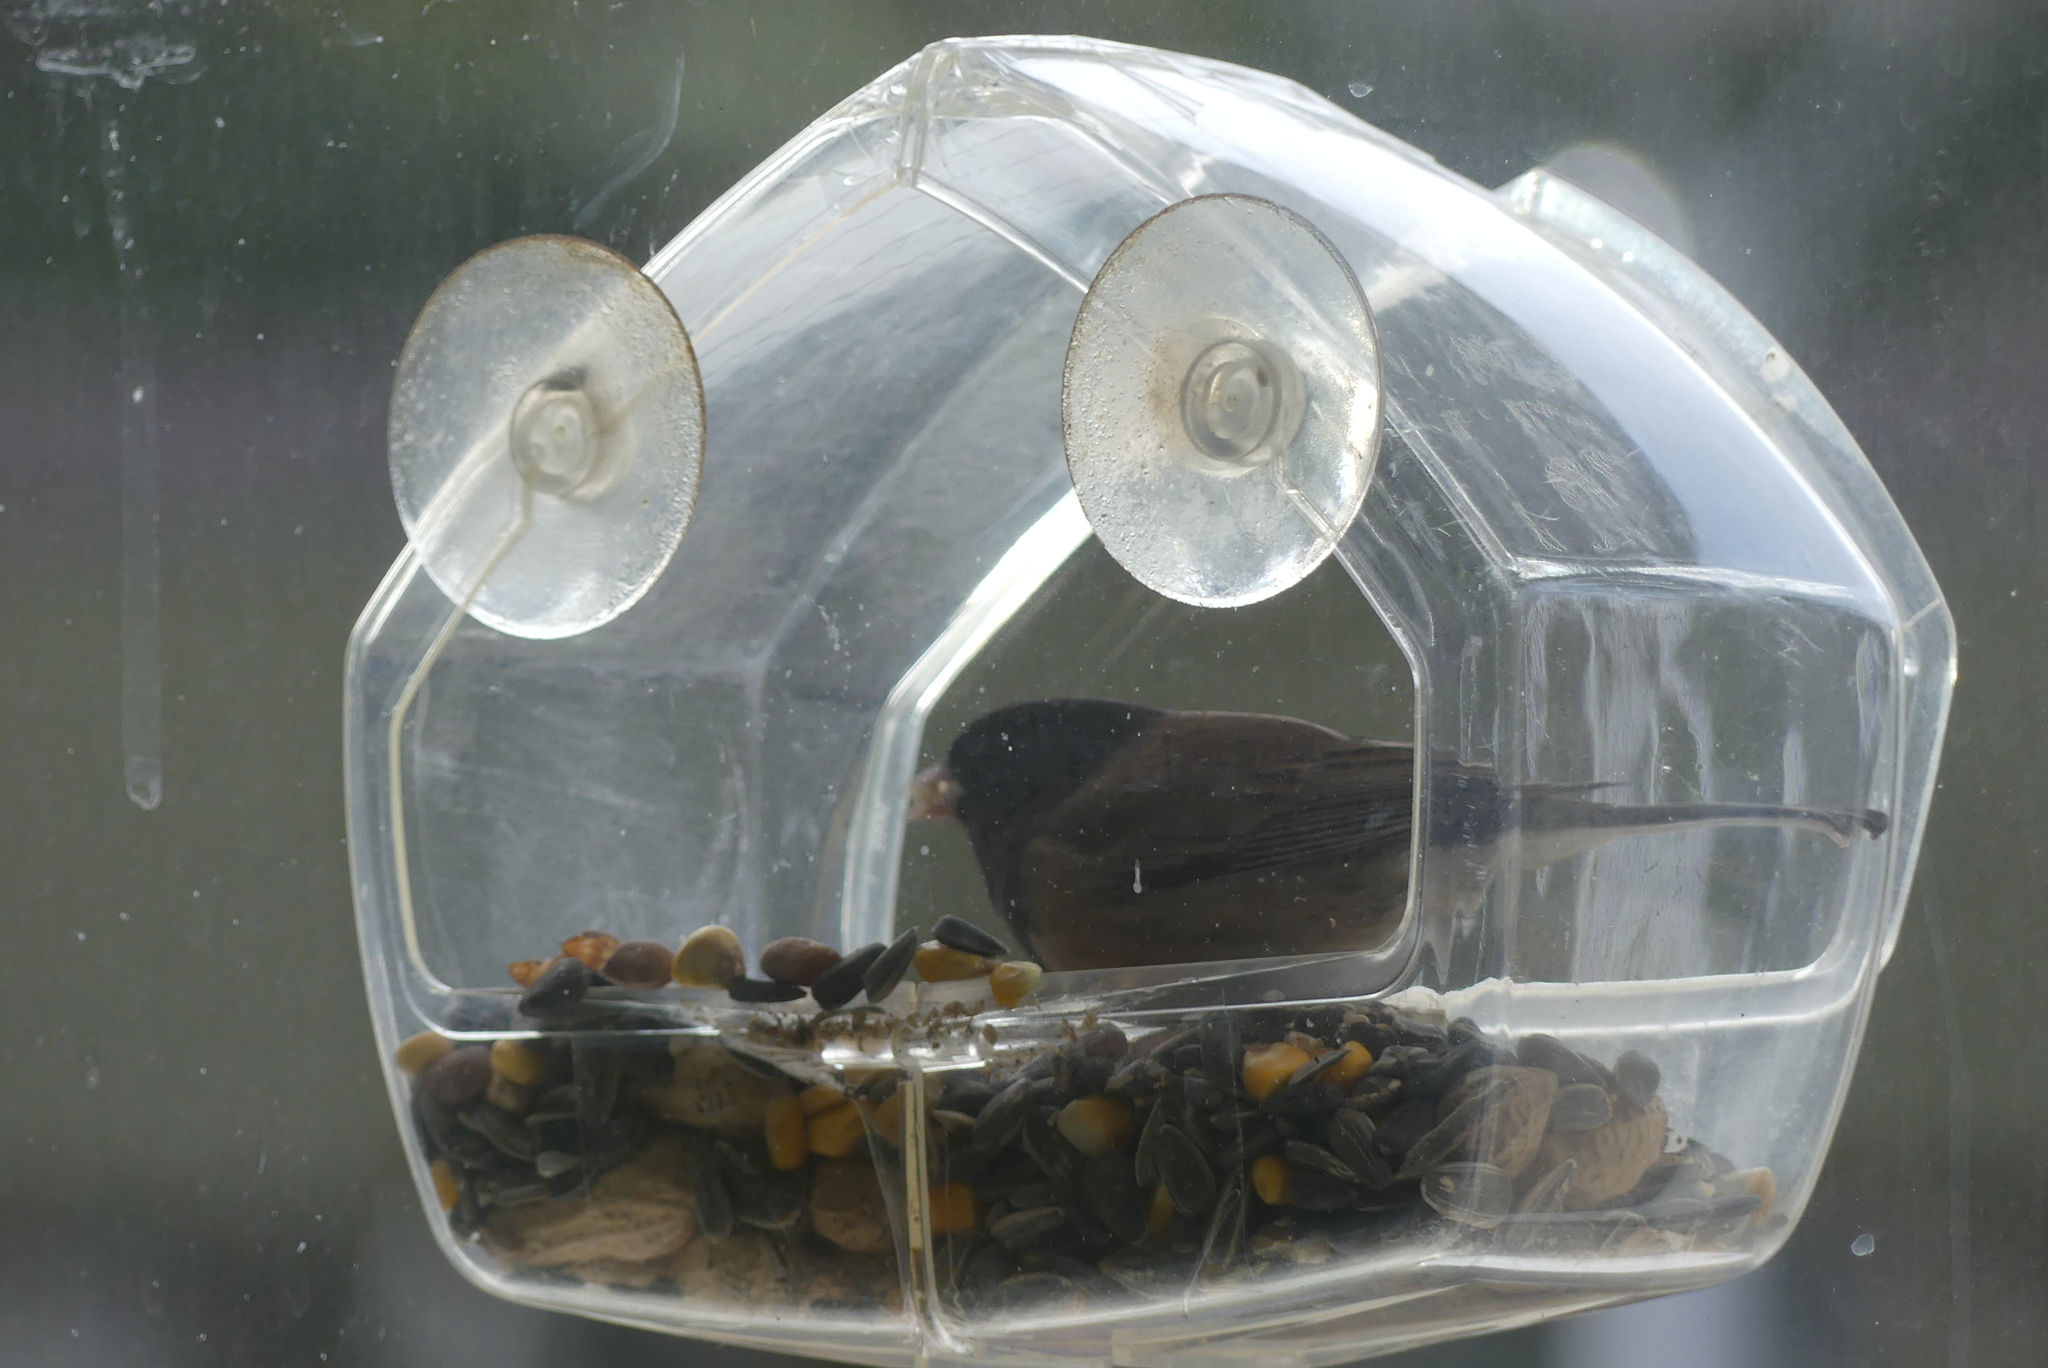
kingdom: Animalia
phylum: Chordata
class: Aves
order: Passeriformes
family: Passerellidae
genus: Junco
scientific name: Junco hyemalis
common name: Dark-eyed junco
